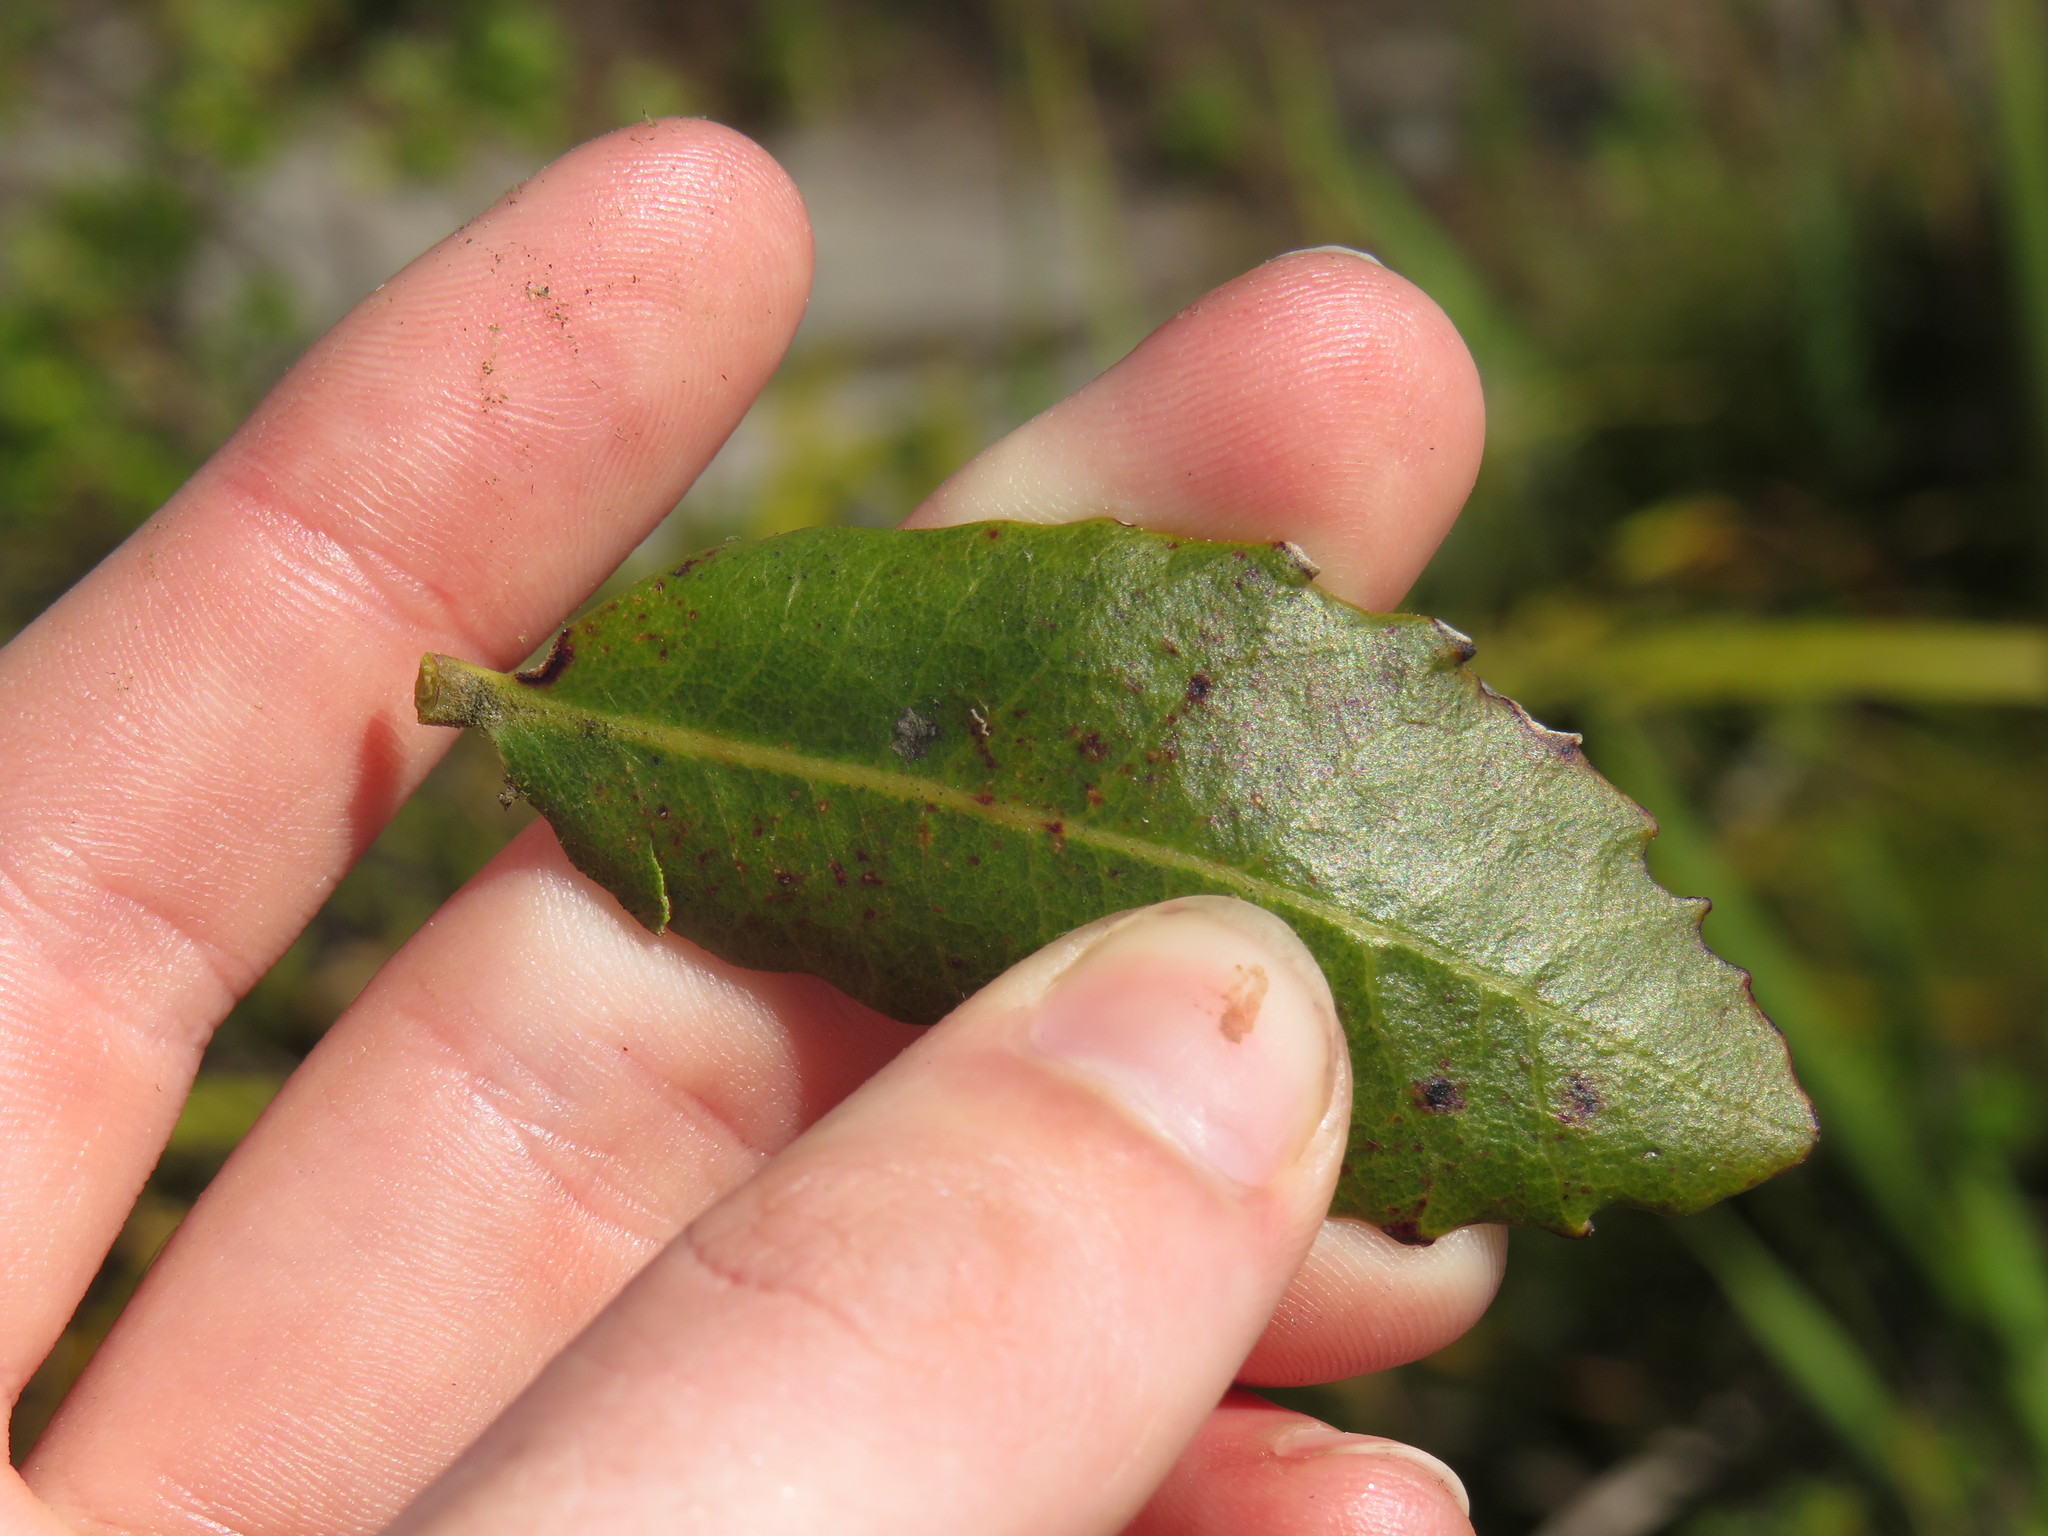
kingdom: Plantae
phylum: Tracheophyta
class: Magnoliopsida
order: Fagales
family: Myricaceae
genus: Morella
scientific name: Morella kraussiana
